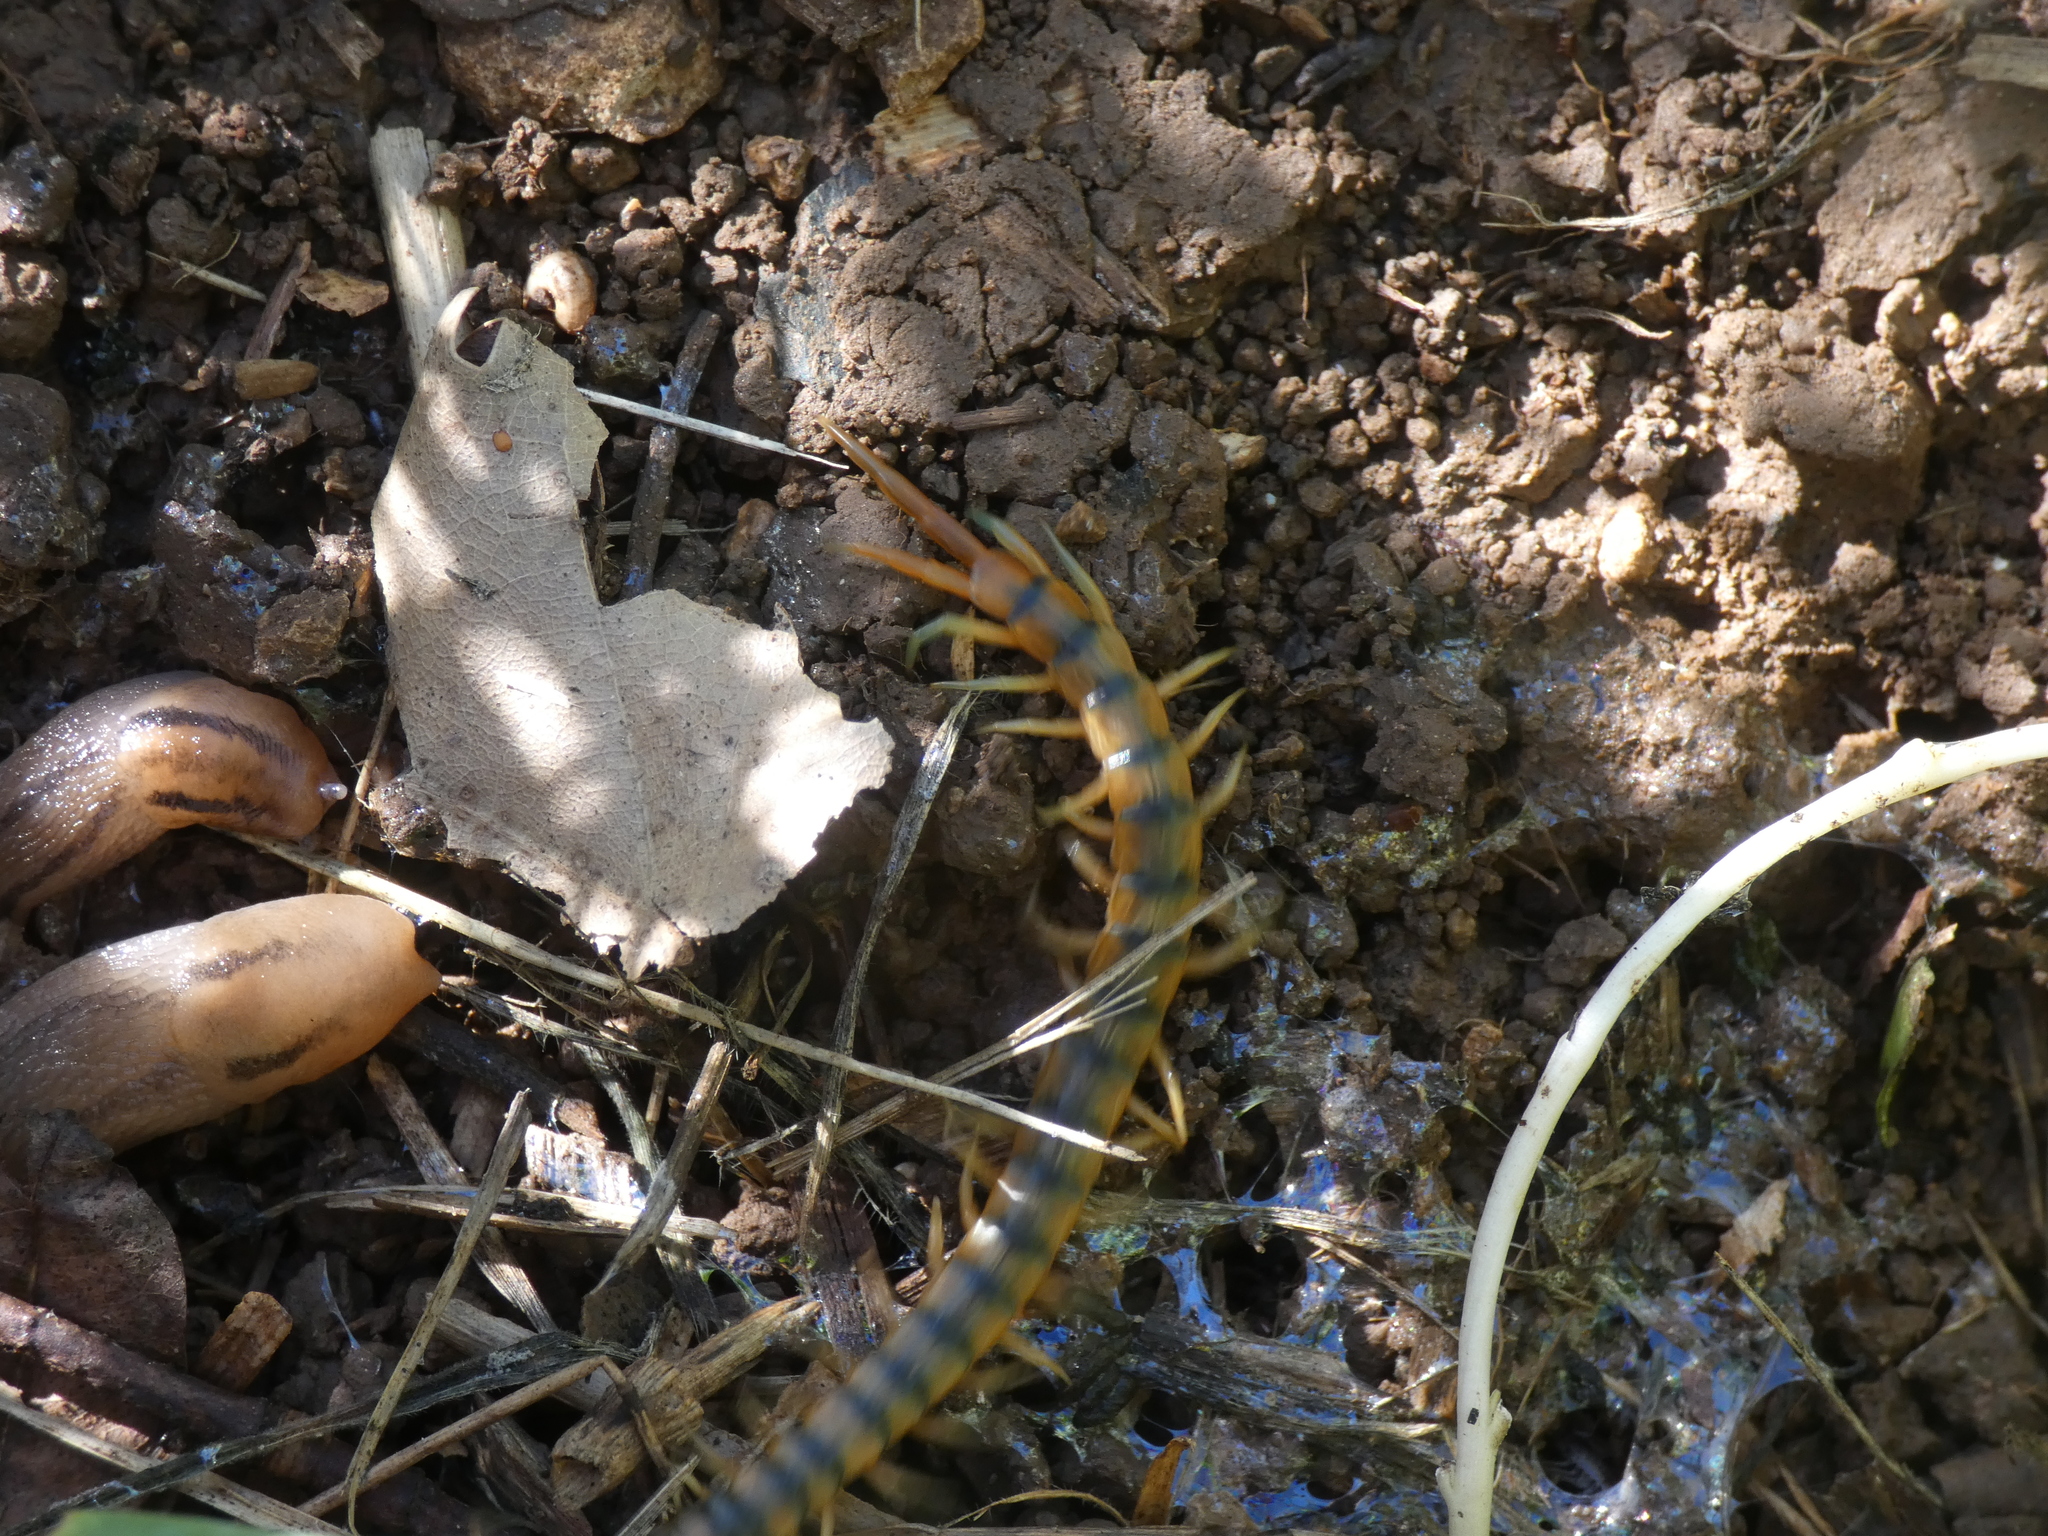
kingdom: Animalia
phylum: Arthropoda
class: Chilopoda
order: Scolopendromorpha
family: Scolopendridae
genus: Scolopendra
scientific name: Scolopendra cingulata
